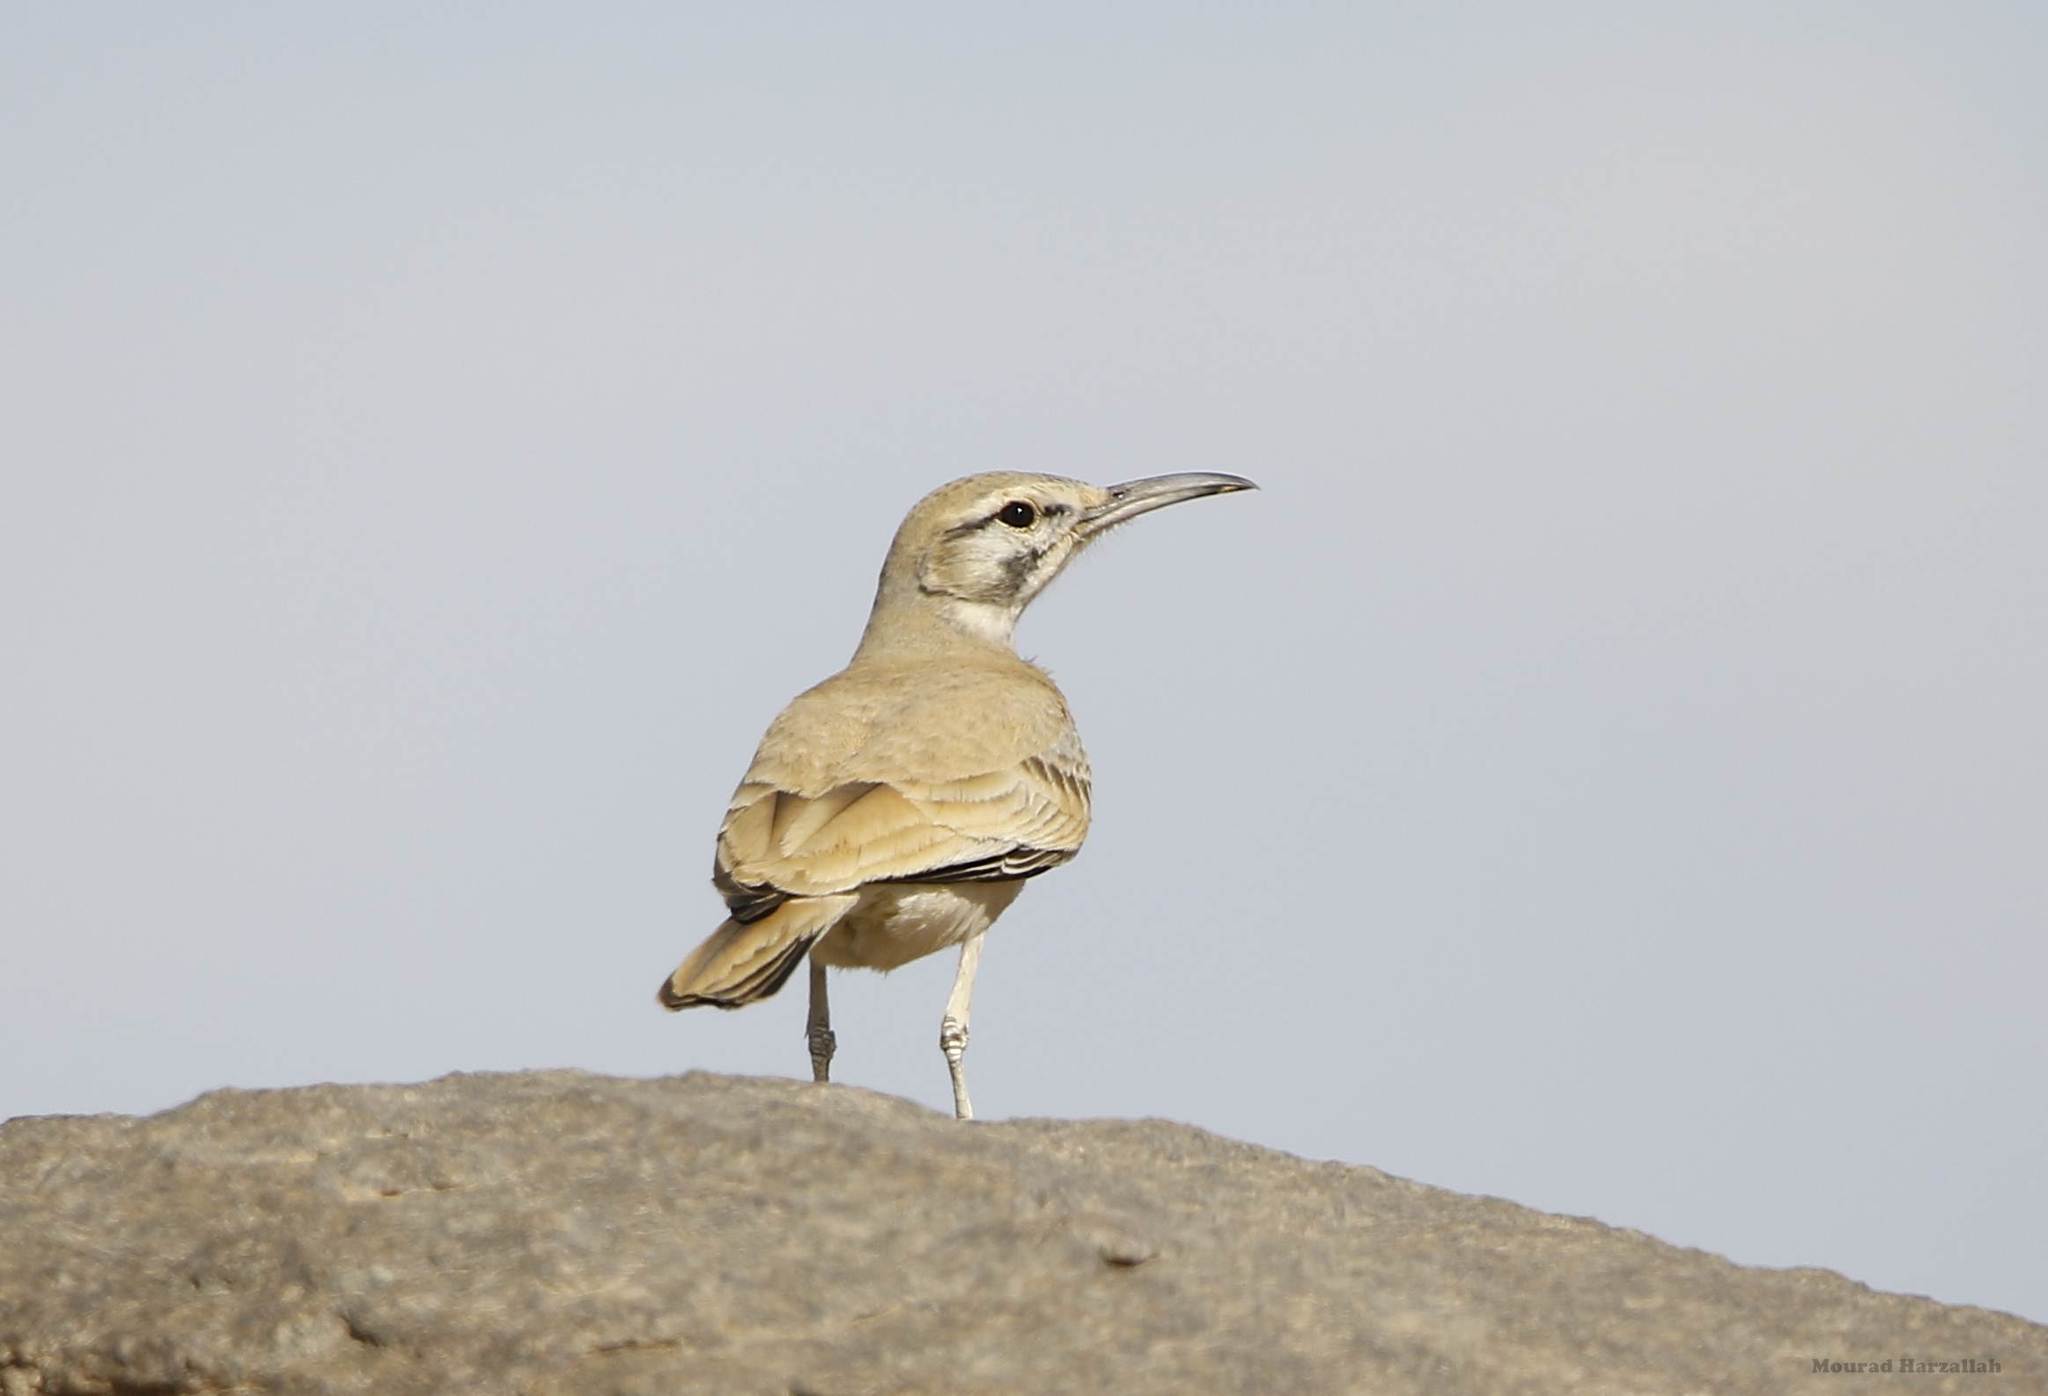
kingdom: Animalia
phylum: Chordata
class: Aves
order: Passeriformes
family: Alaudidae
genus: Alaemon
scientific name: Alaemon alaudipes
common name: Greater hoopoe-lark
